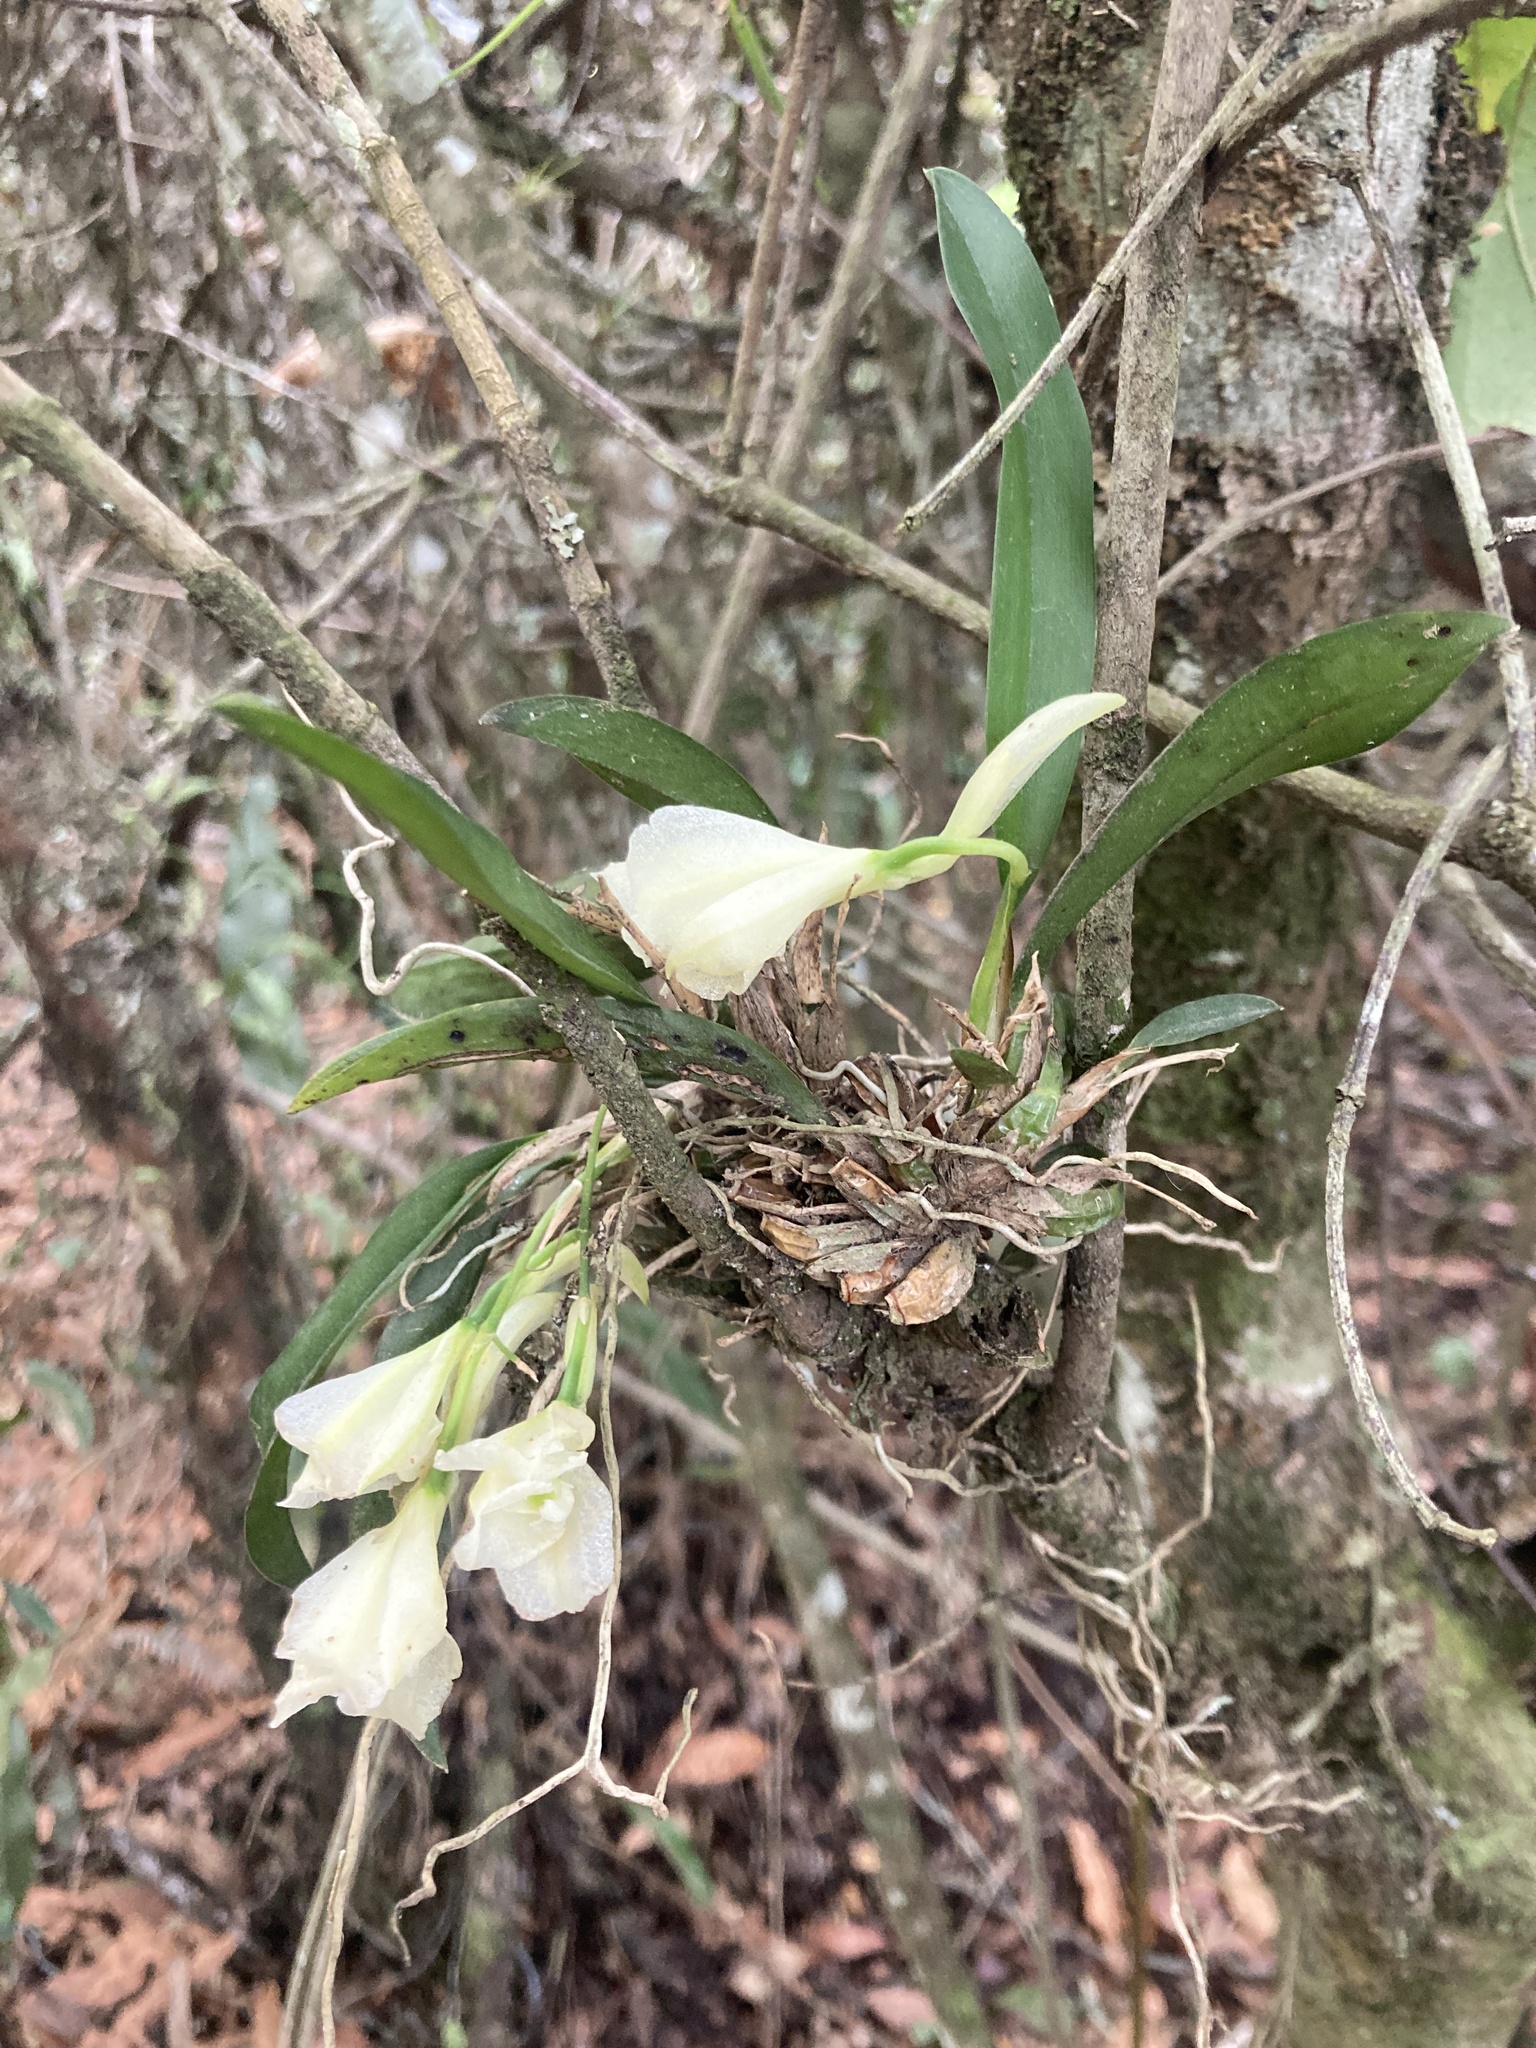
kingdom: Plantae
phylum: Tracheophyta
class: Liliopsida
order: Asparagales
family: Orchidaceae
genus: Rodriguezia
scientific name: Rodriguezia granadensis
